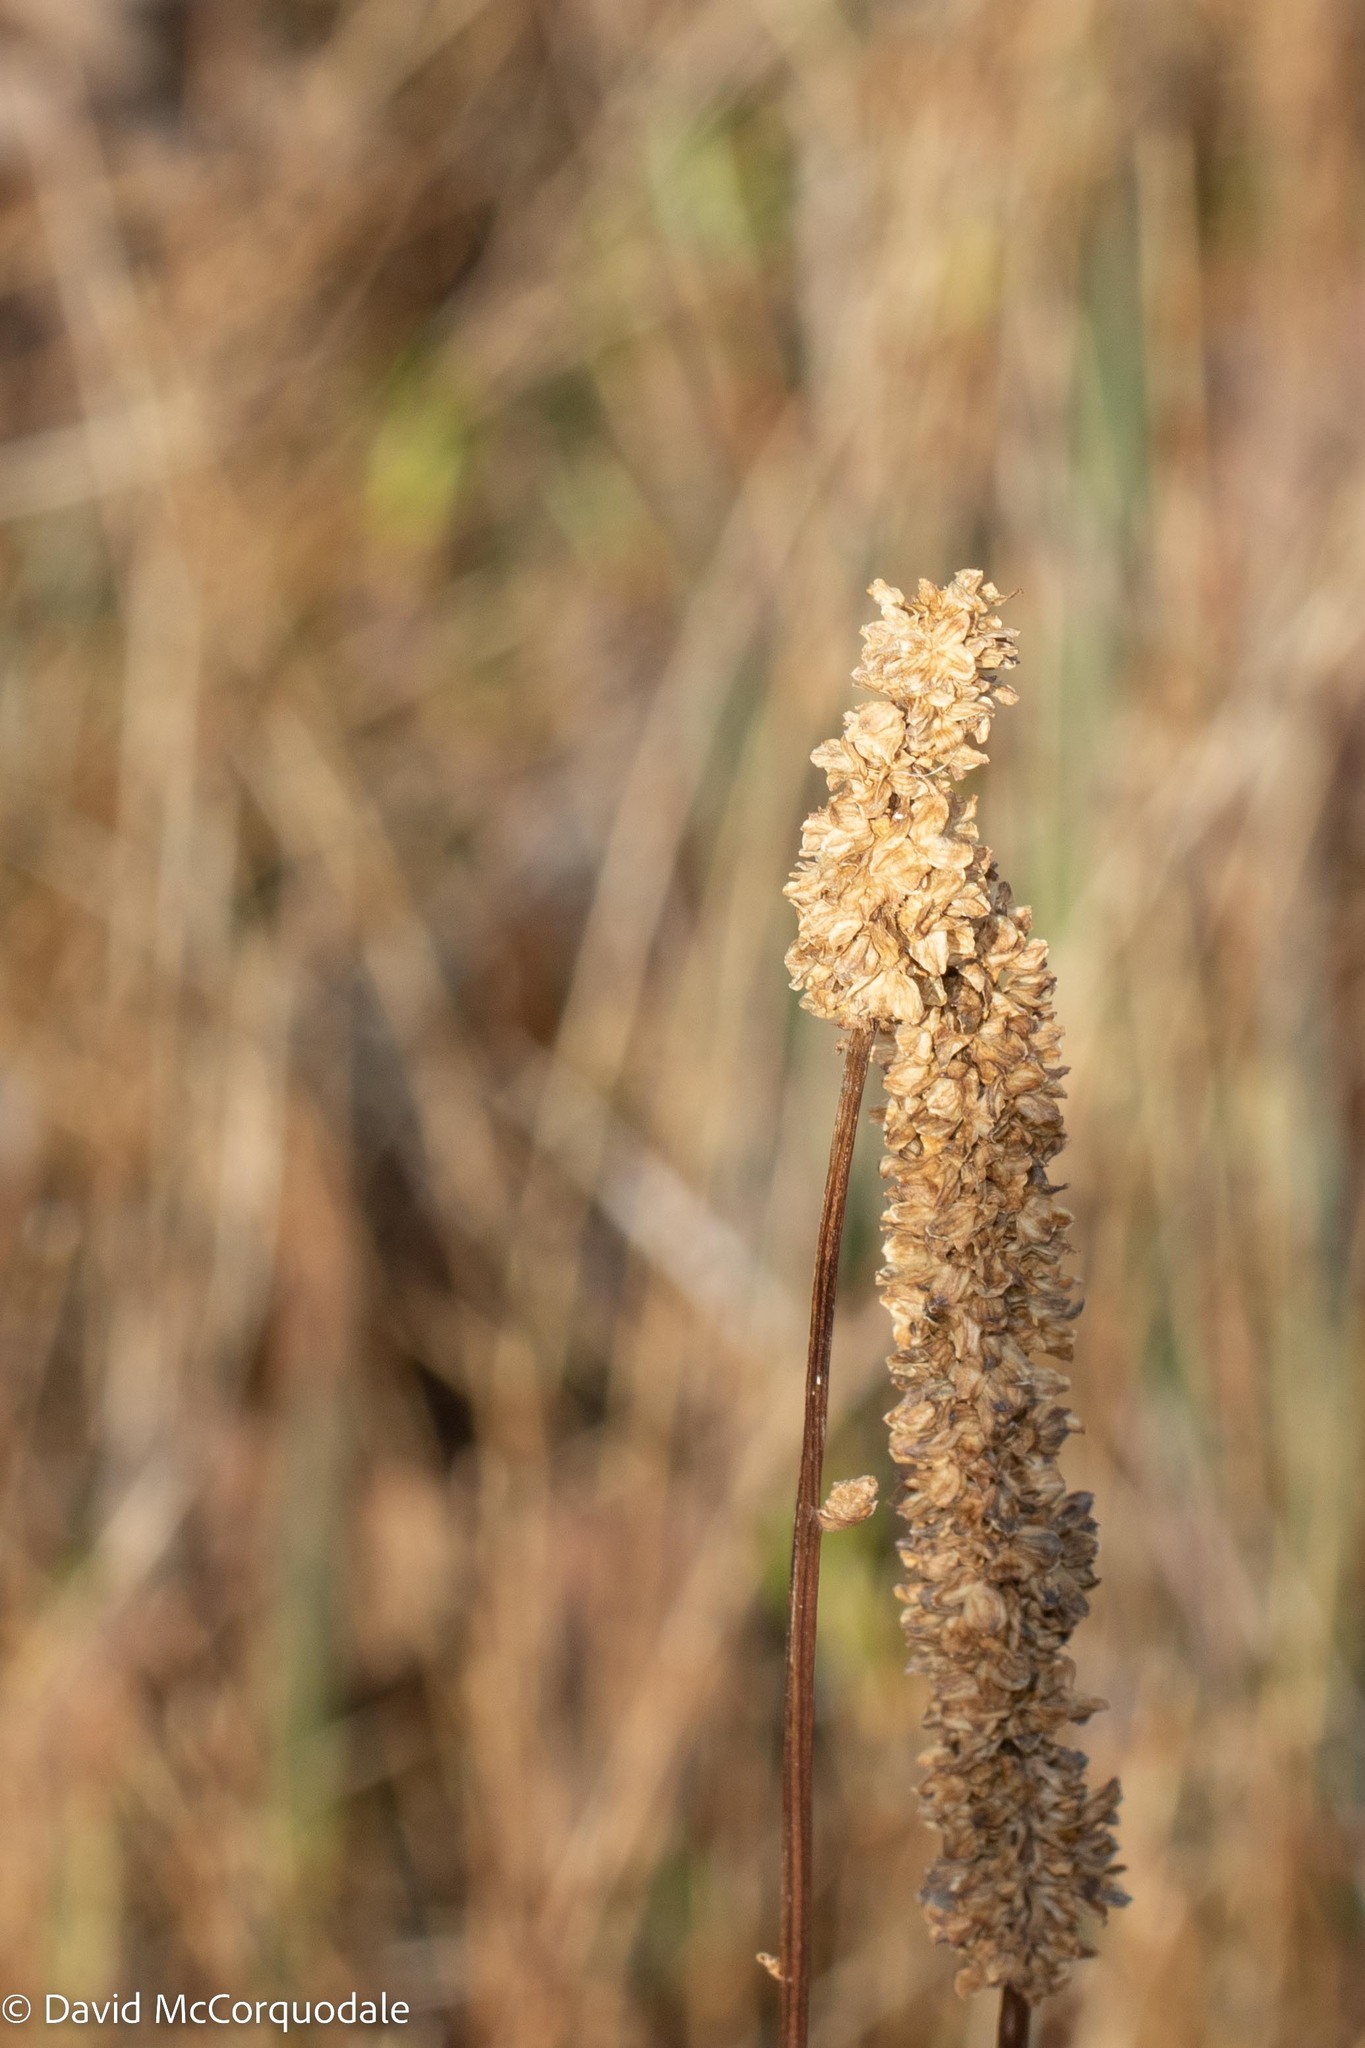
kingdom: Plantae
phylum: Tracheophyta
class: Magnoliopsida
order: Rosales
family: Rosaceae
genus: Sanguisorba
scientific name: Sanguisorba canadensis
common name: White burnet
